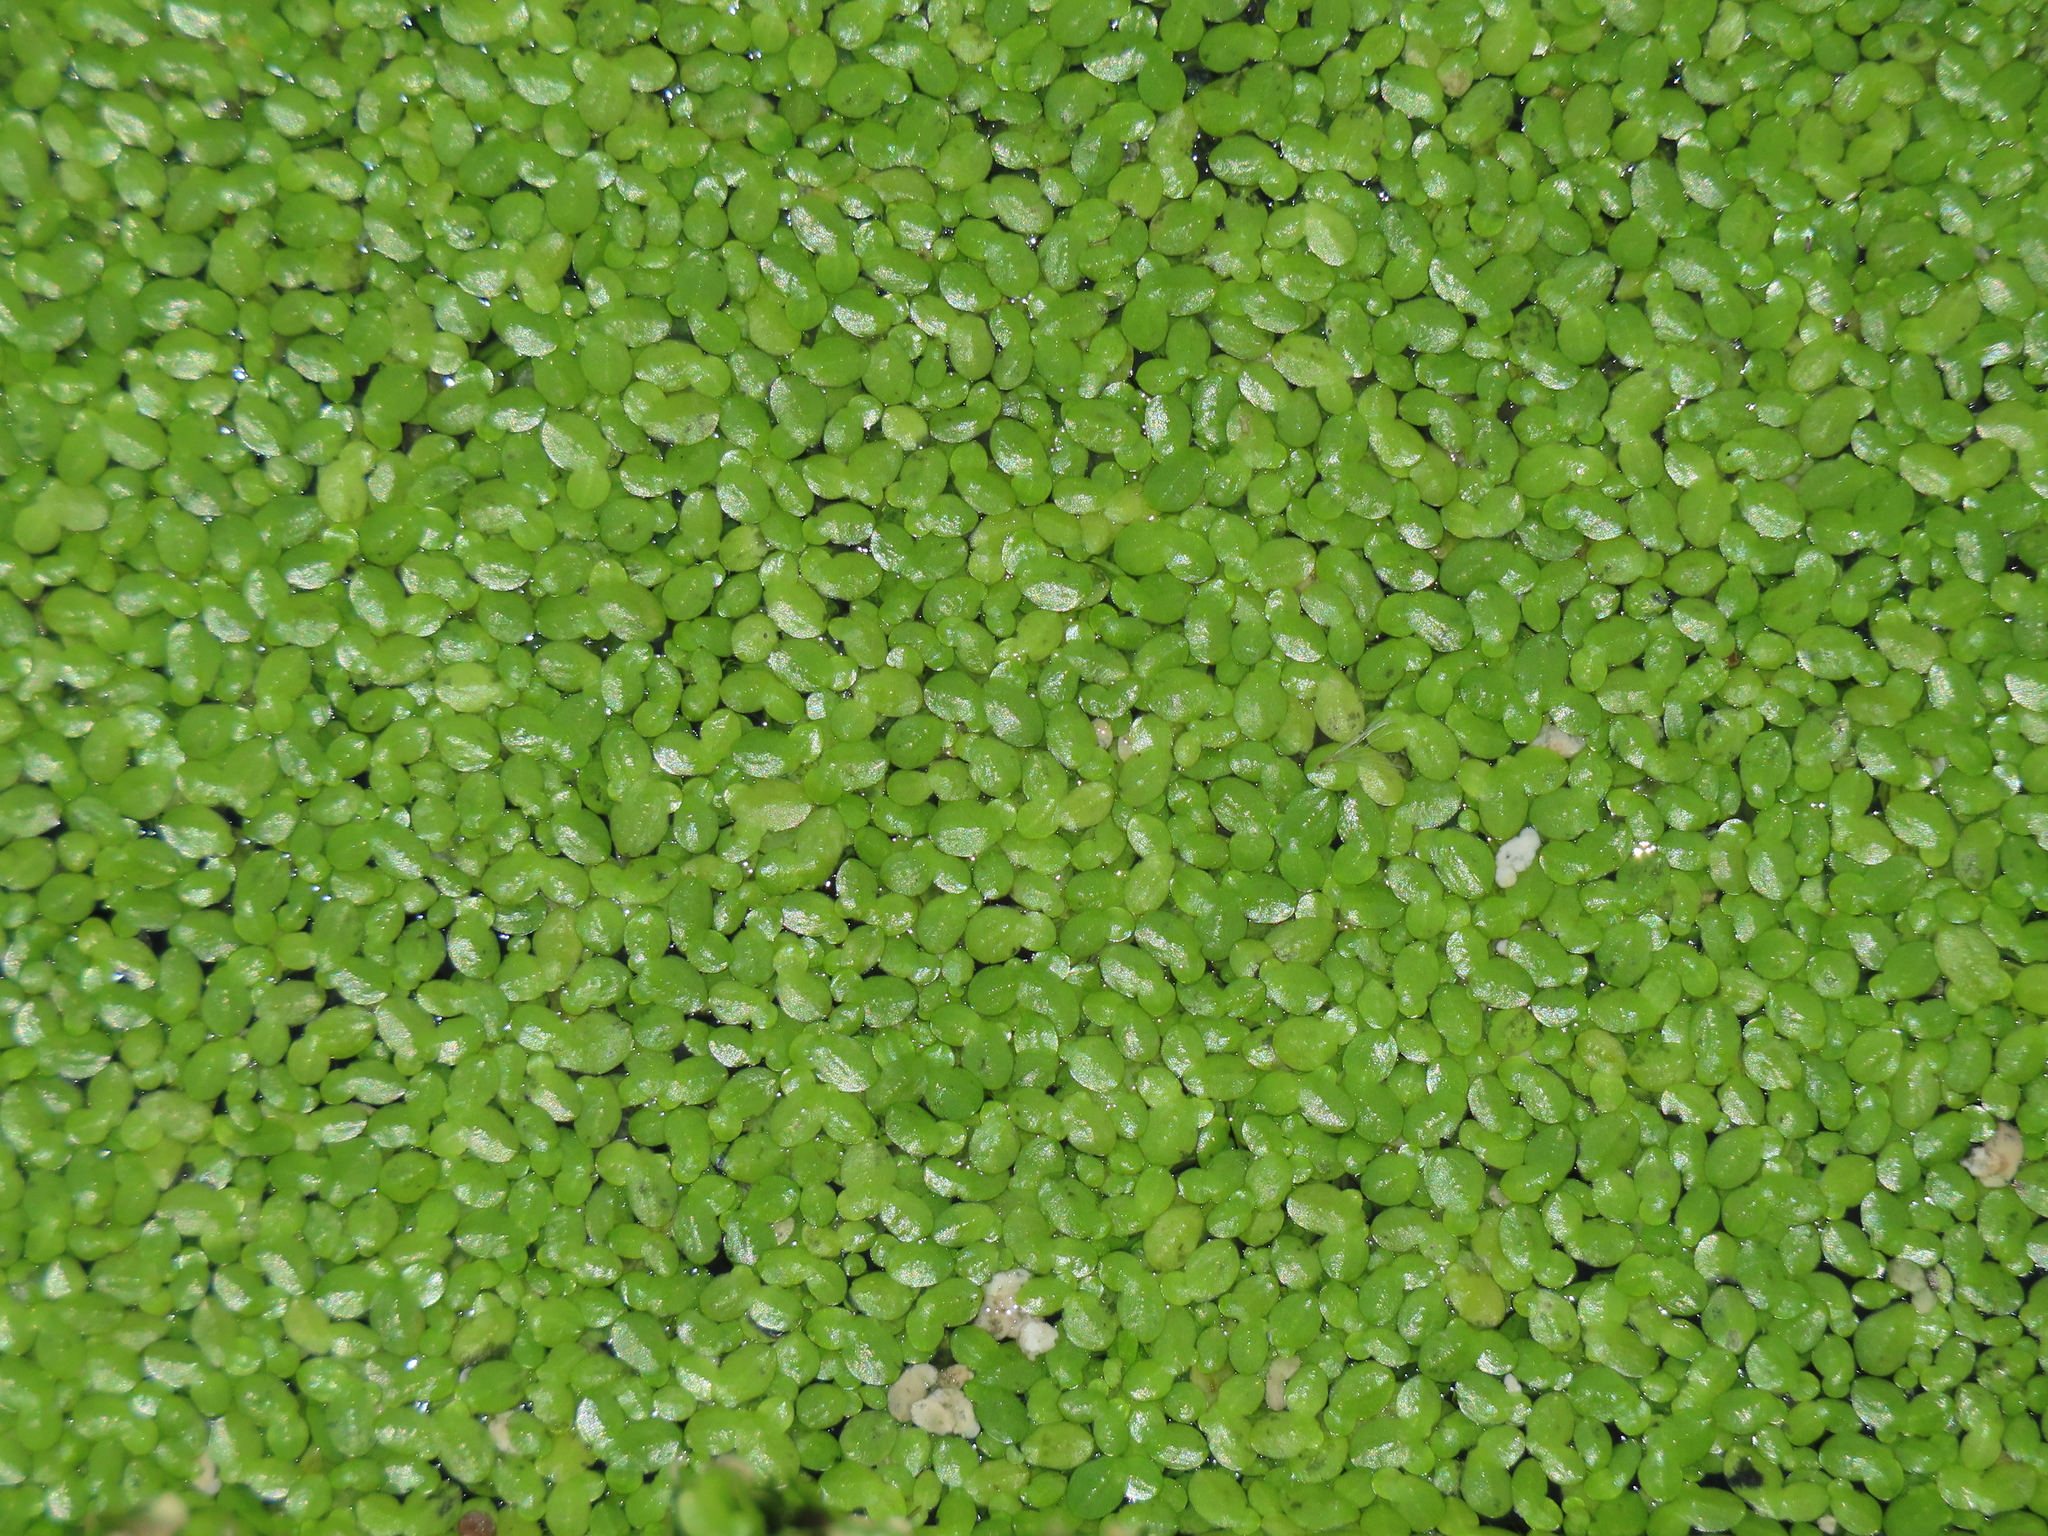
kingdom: Plantae
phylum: Tracheophyta
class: Liliopsida
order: Alismatales
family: Araceae
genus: Lemna
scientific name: Lemna aequinoctialis
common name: Duckweed
